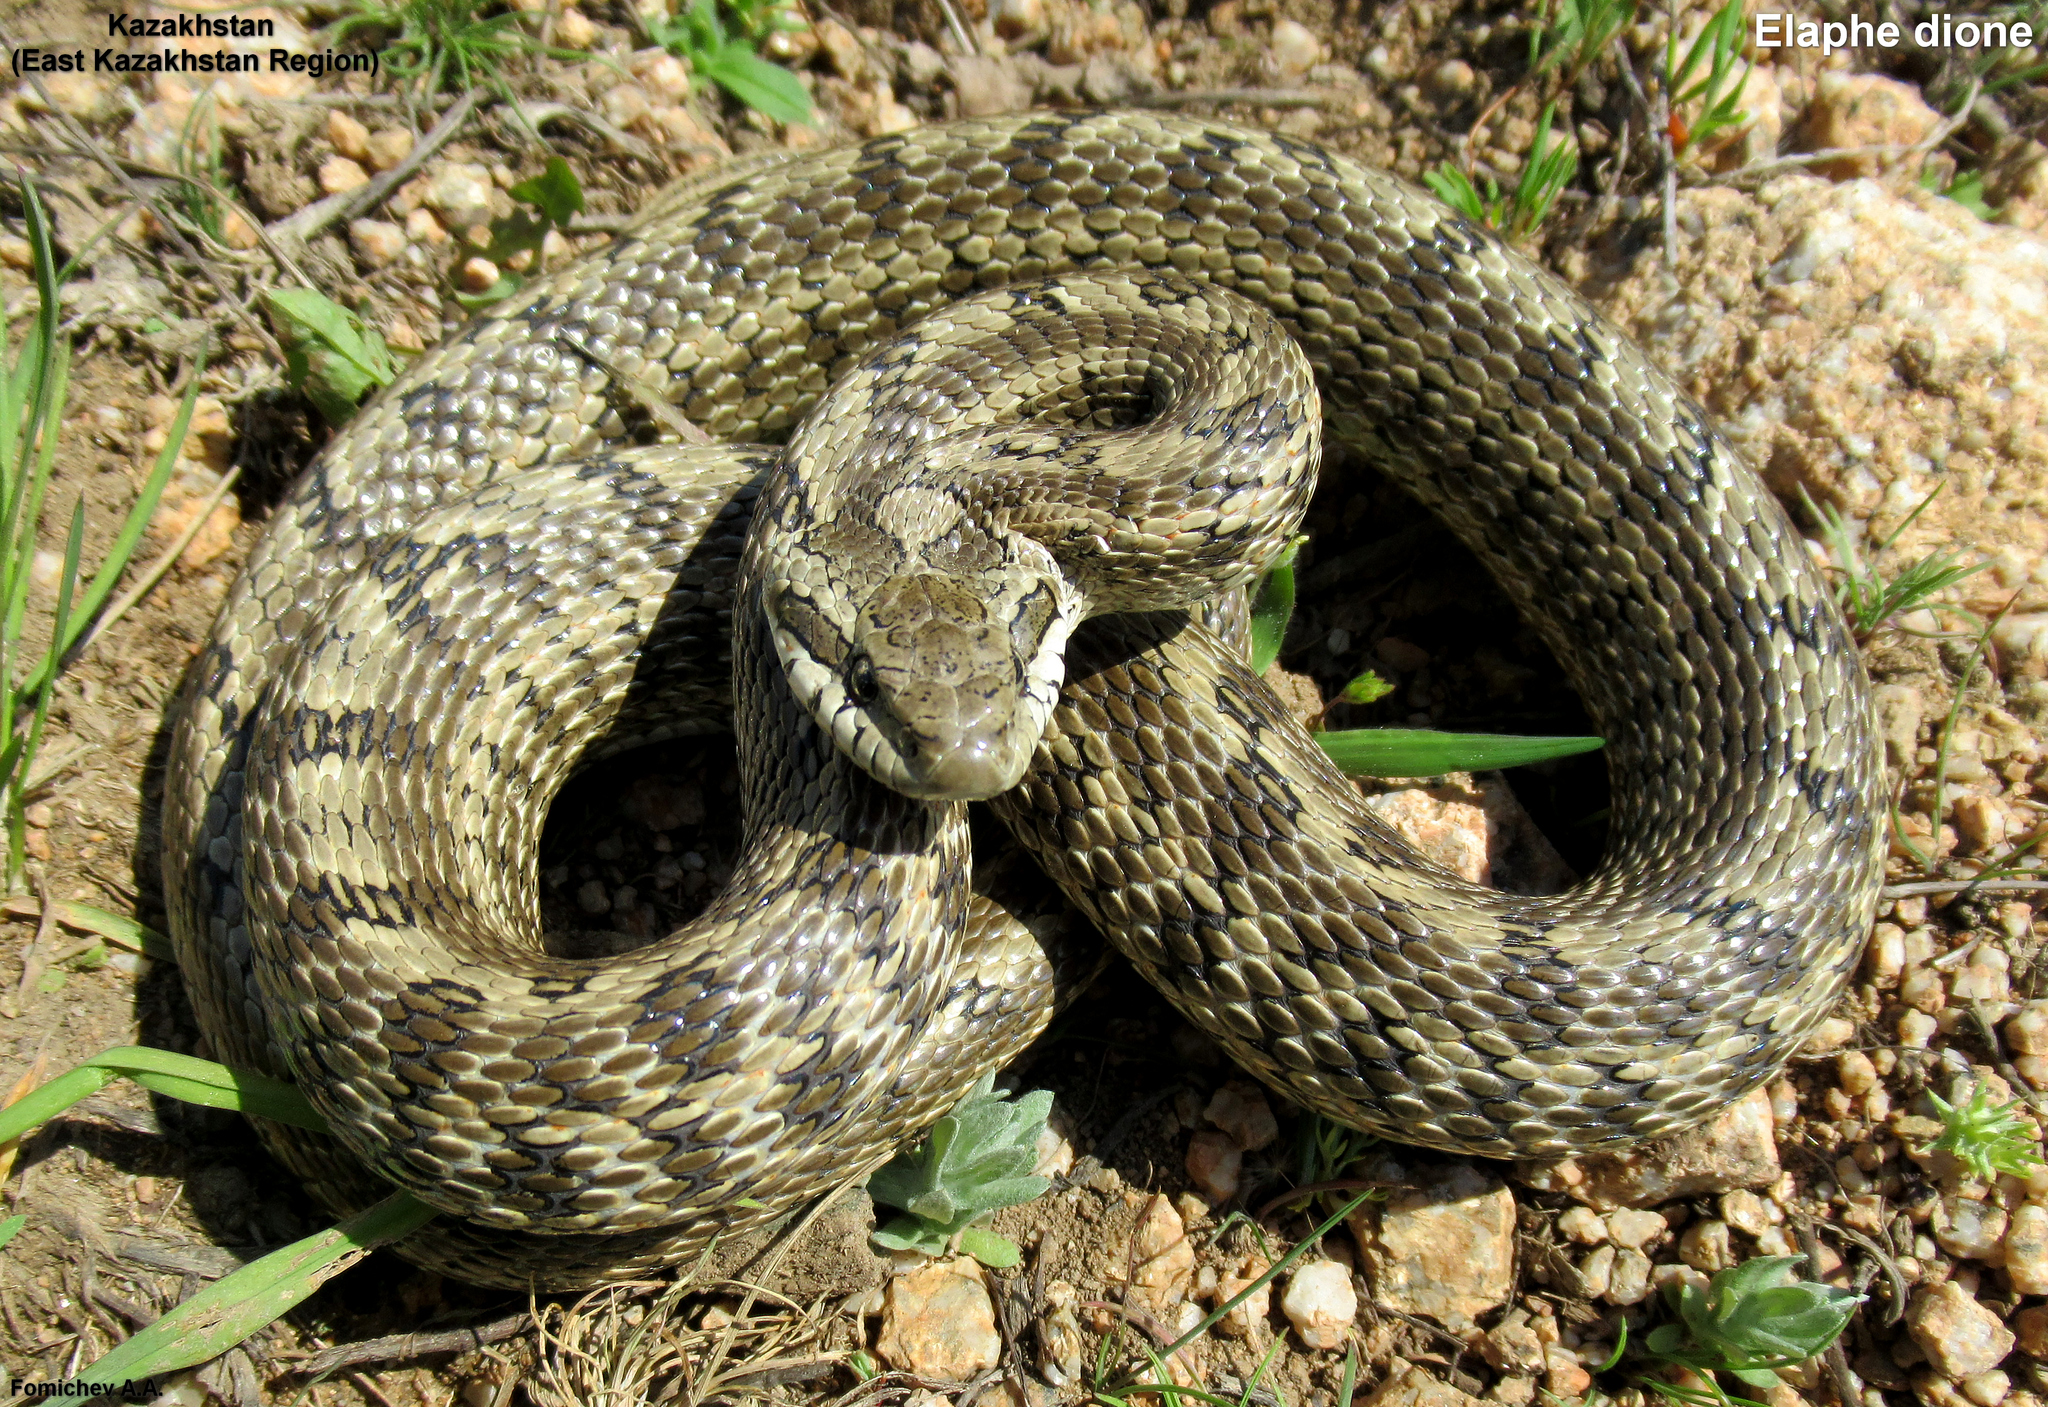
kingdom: Animalia
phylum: Chordata
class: Squamata
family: Colubridae
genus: Elaphe
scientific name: Elaphe dione
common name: Dione ratsnake
